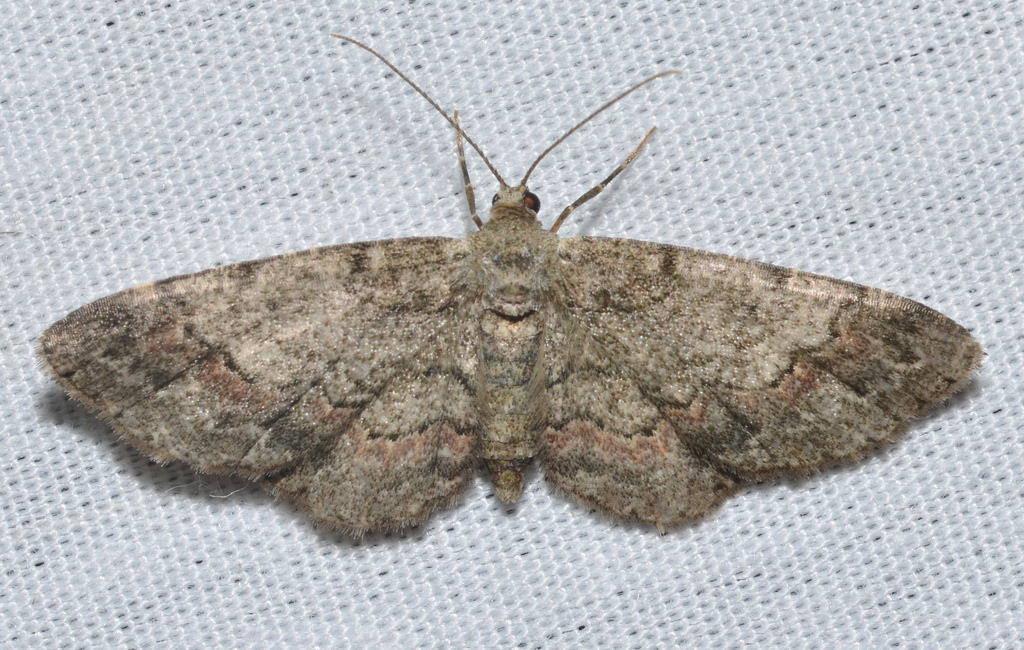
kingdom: Animalia
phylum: Arthropoda
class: Insecta
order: Lepidoptera
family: Geometridae
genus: Glenoides
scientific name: Glenoides texanaria
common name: Texas gray
